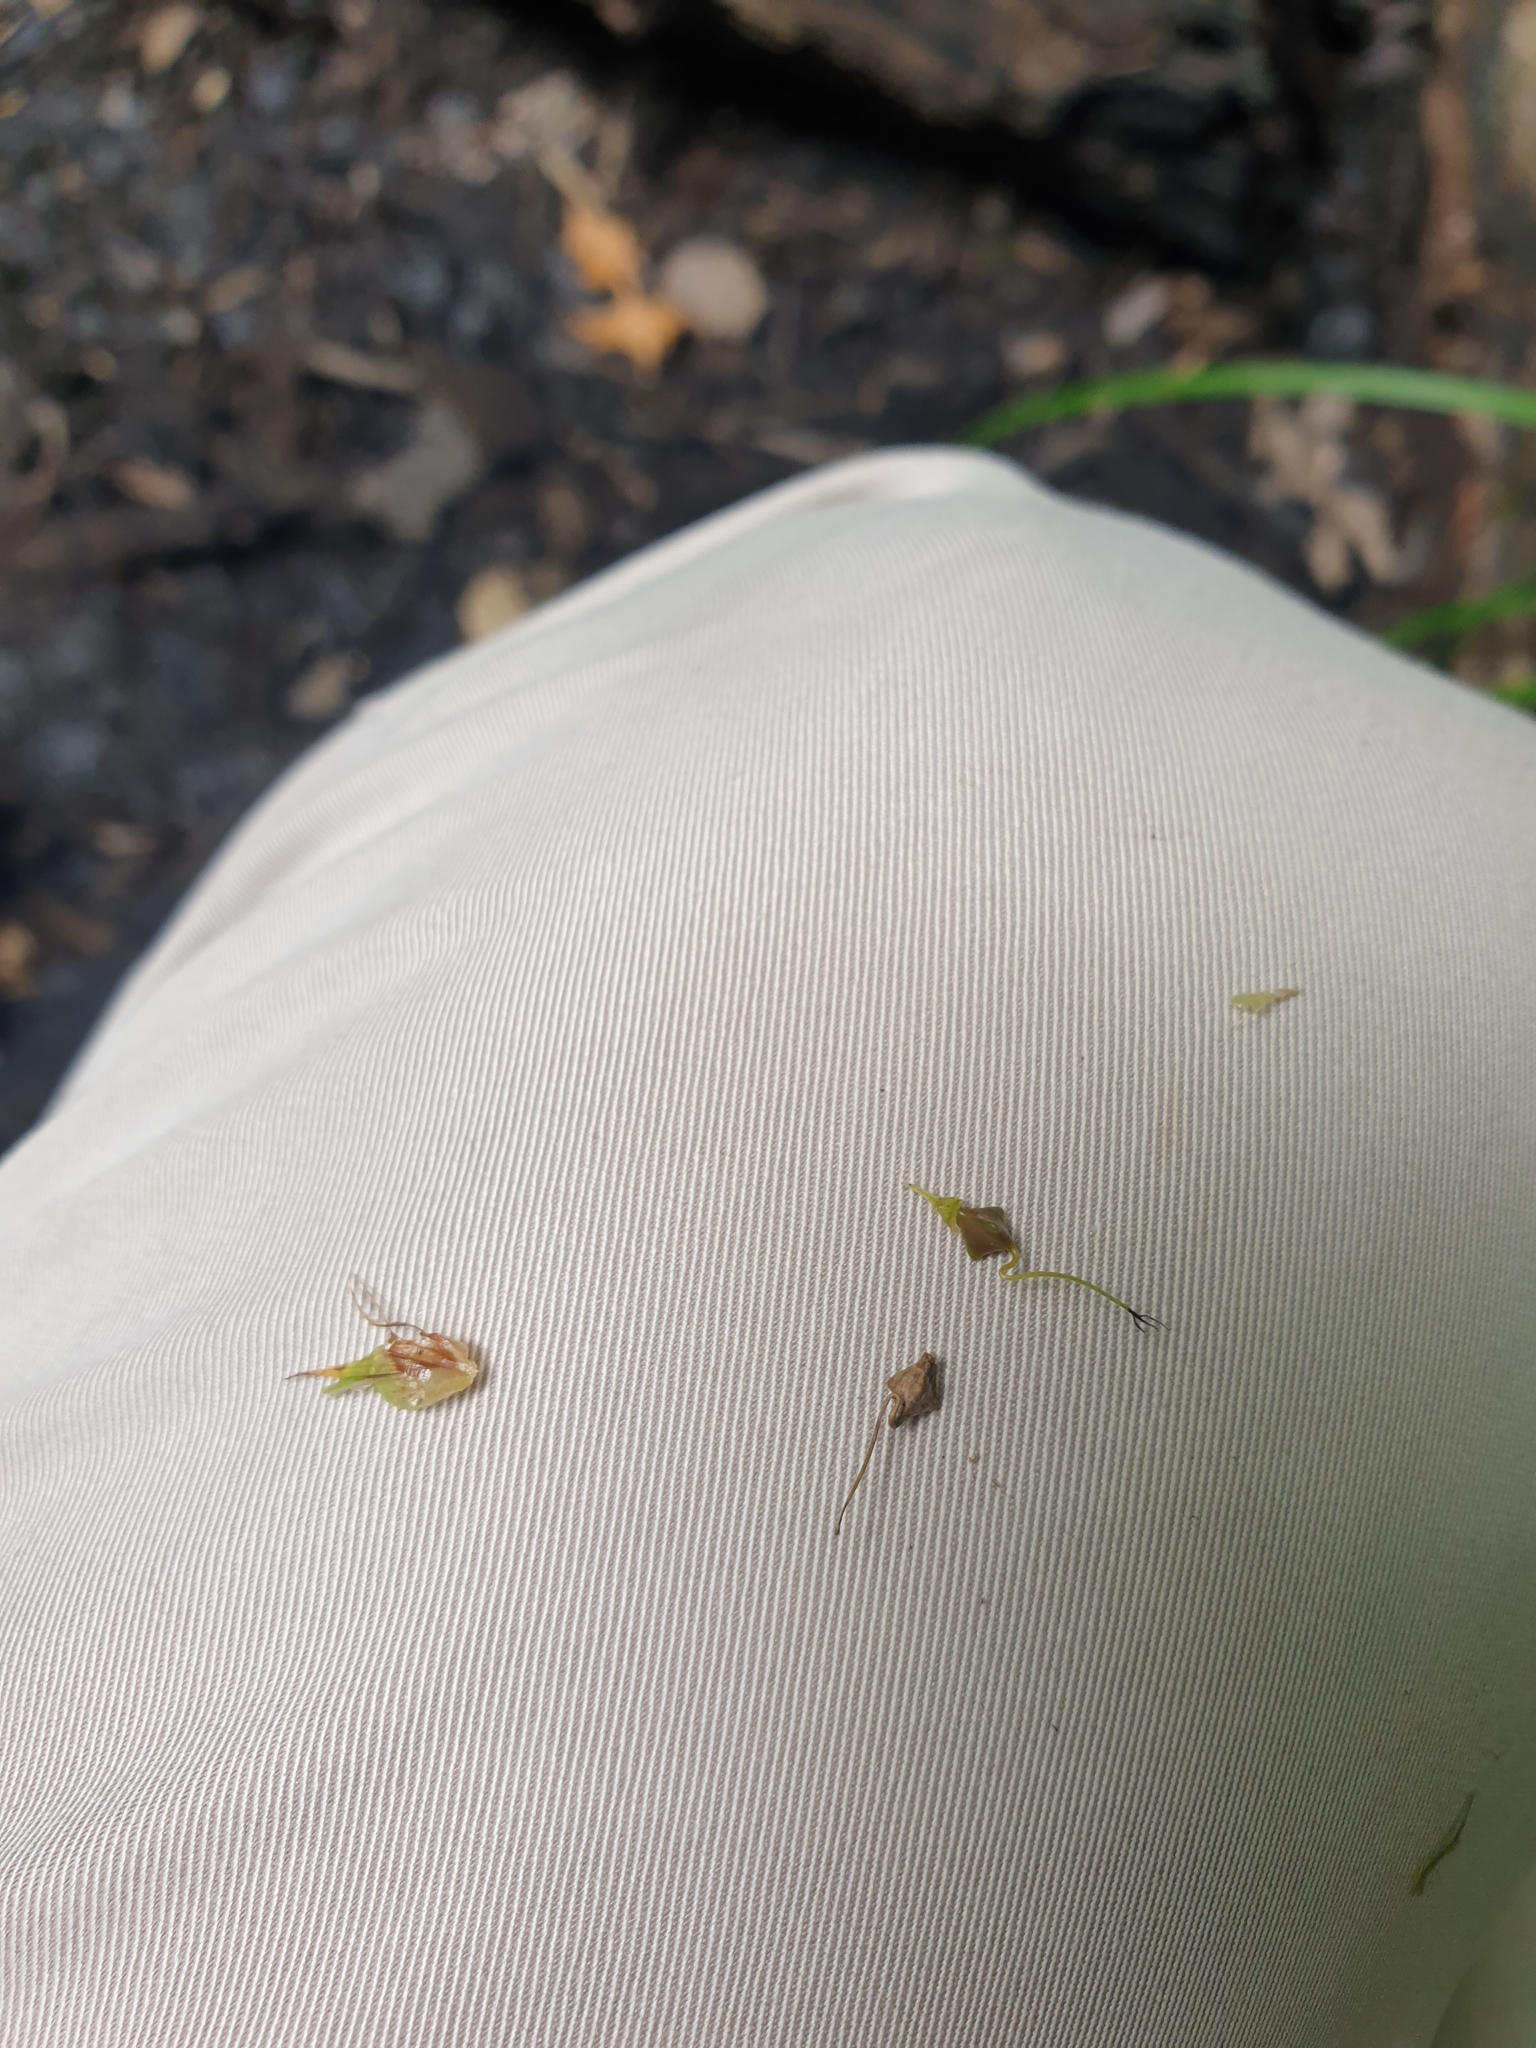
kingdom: Plantae
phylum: Tracheophyta
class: Liliopsida
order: Poales
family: Cyperaceae
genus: Carex
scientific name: Carex lupuliformis
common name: False hop sedge
